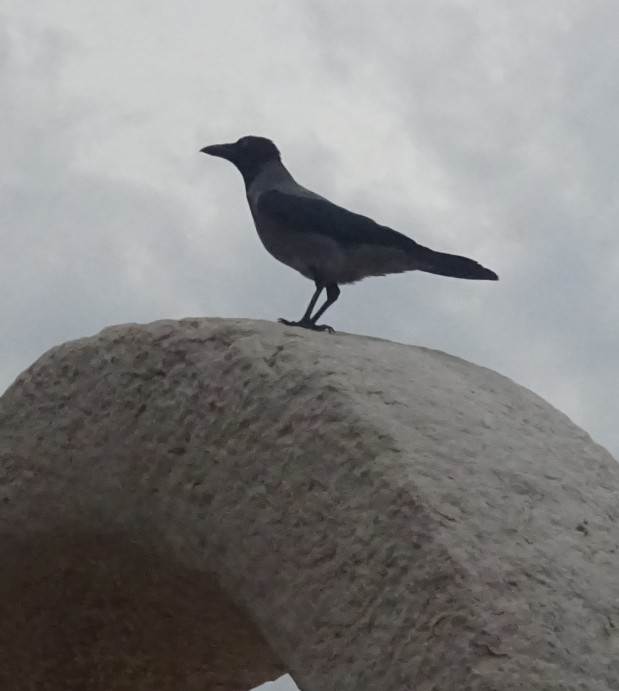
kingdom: Animalia
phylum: Chordata
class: Aves
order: Passeriformes
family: Corvidae
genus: Corvus
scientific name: Corvus cornix
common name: Hooded crow
